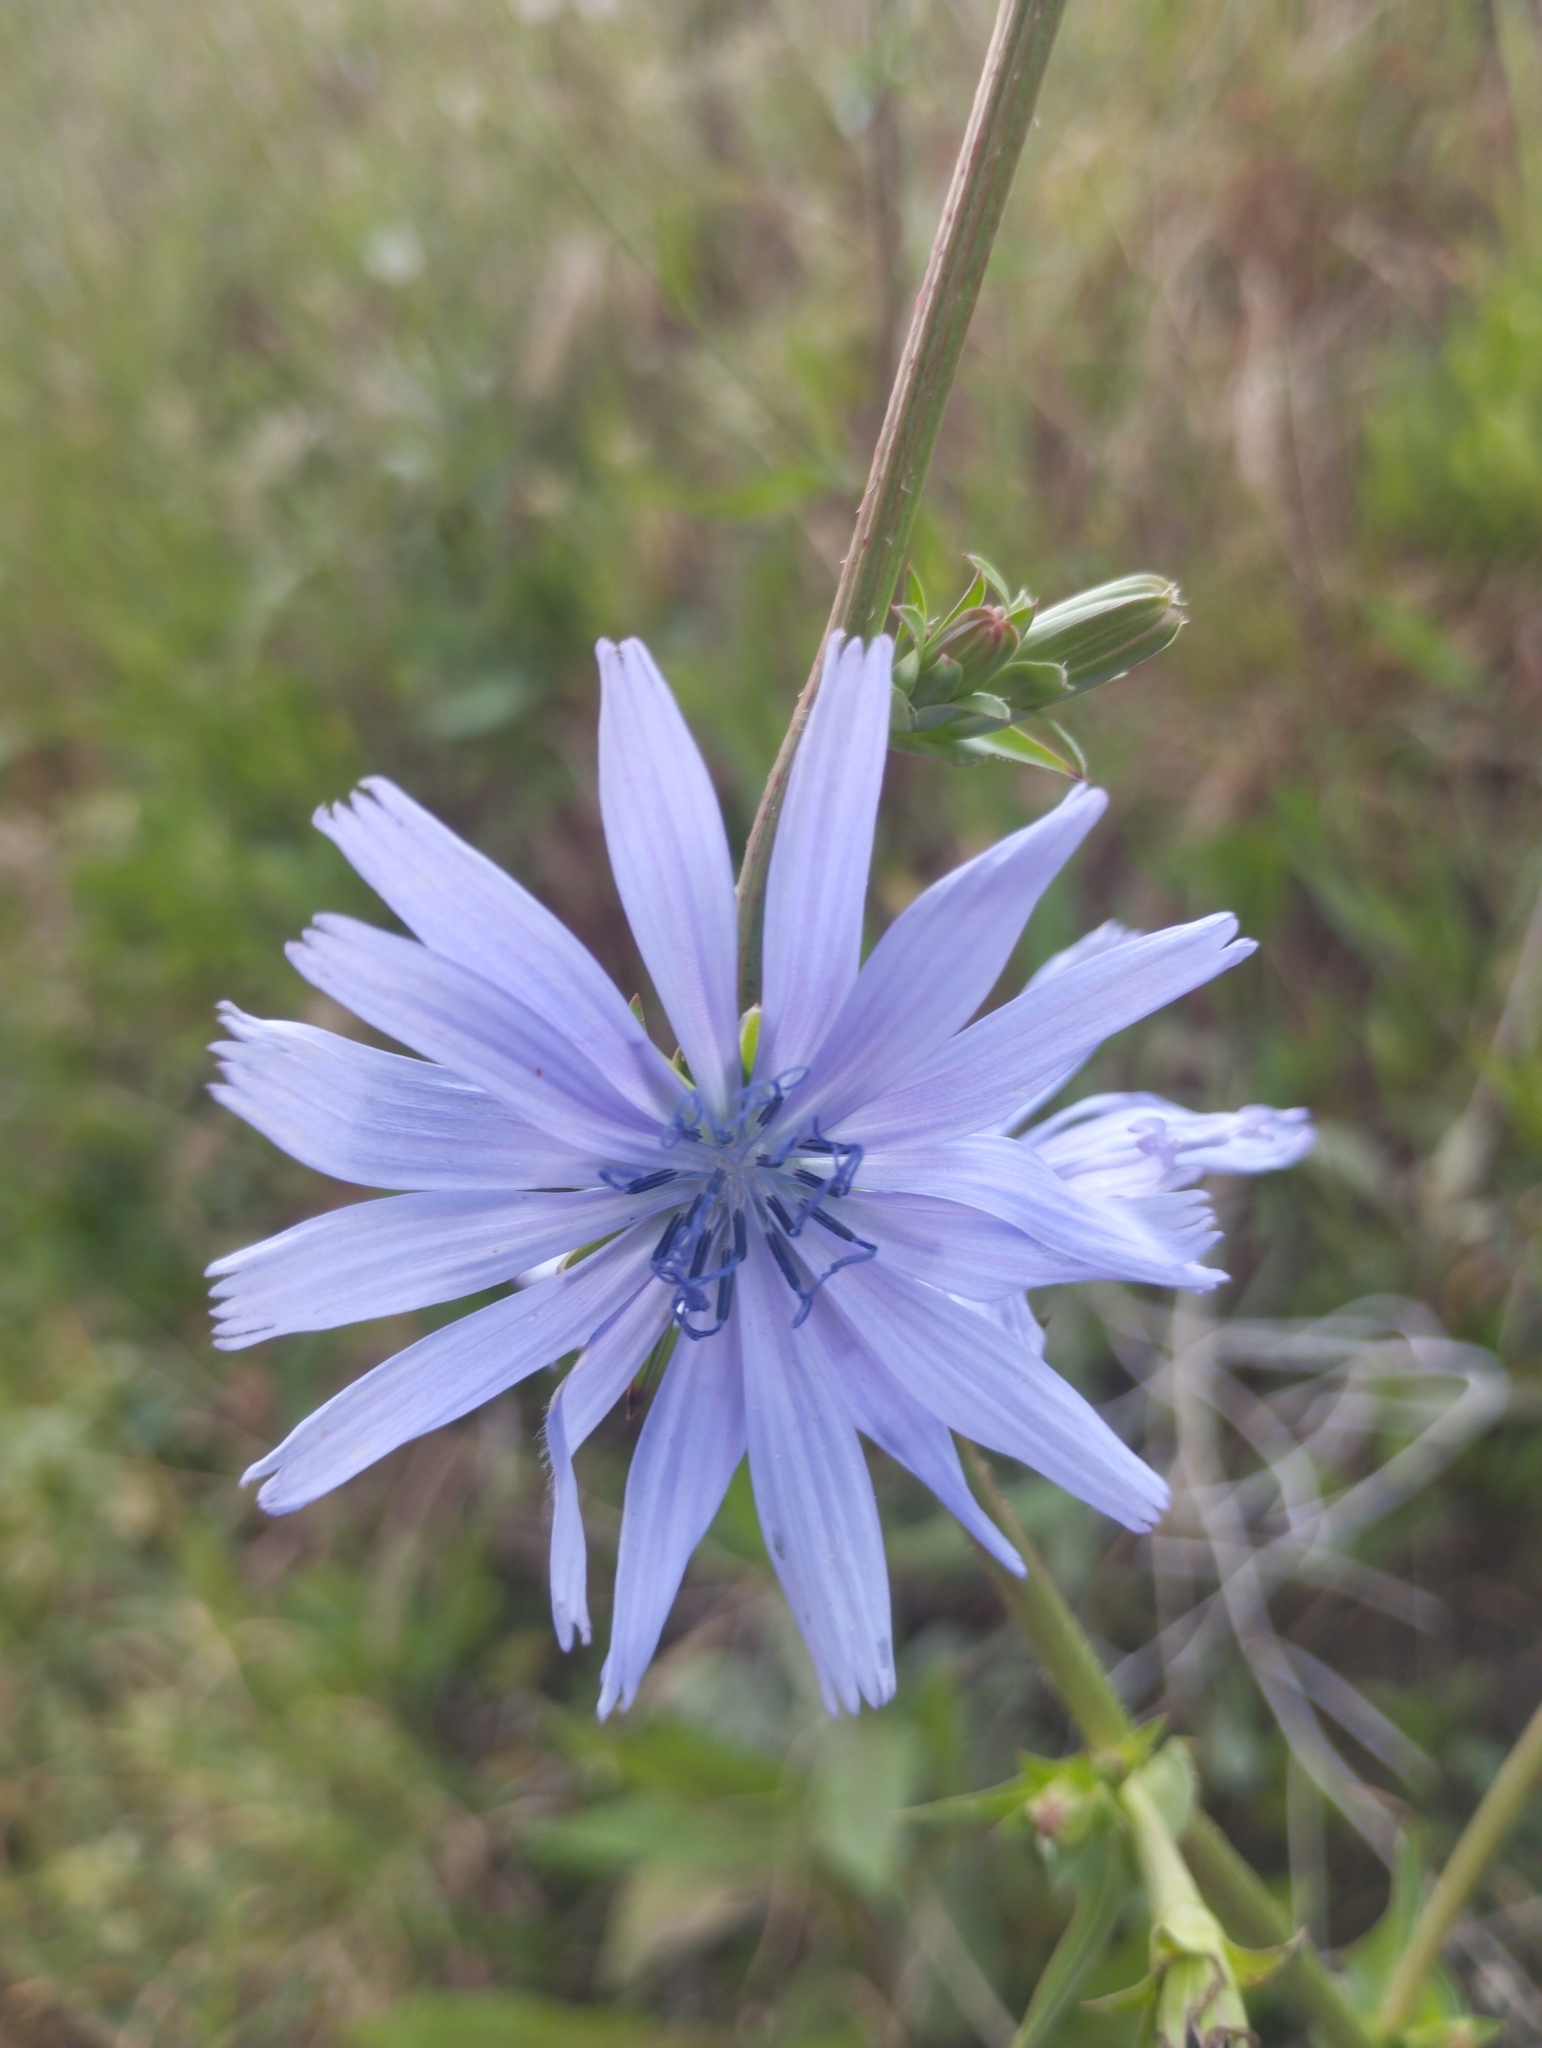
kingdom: Plantae
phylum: Tracheophyta
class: Magnoliopsida
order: Asterales
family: Asteraceae
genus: Cichorium
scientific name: Cichorium intybus
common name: Chicory
